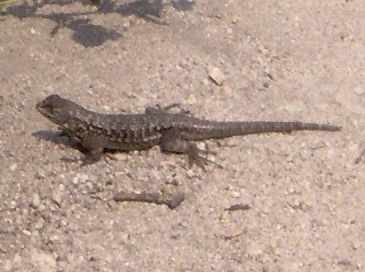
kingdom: Animalia
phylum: Chordata
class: Squamata
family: Phrynosomatidae
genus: Sceloporus
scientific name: Sceloporus occidentalis
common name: Western fence lizard
